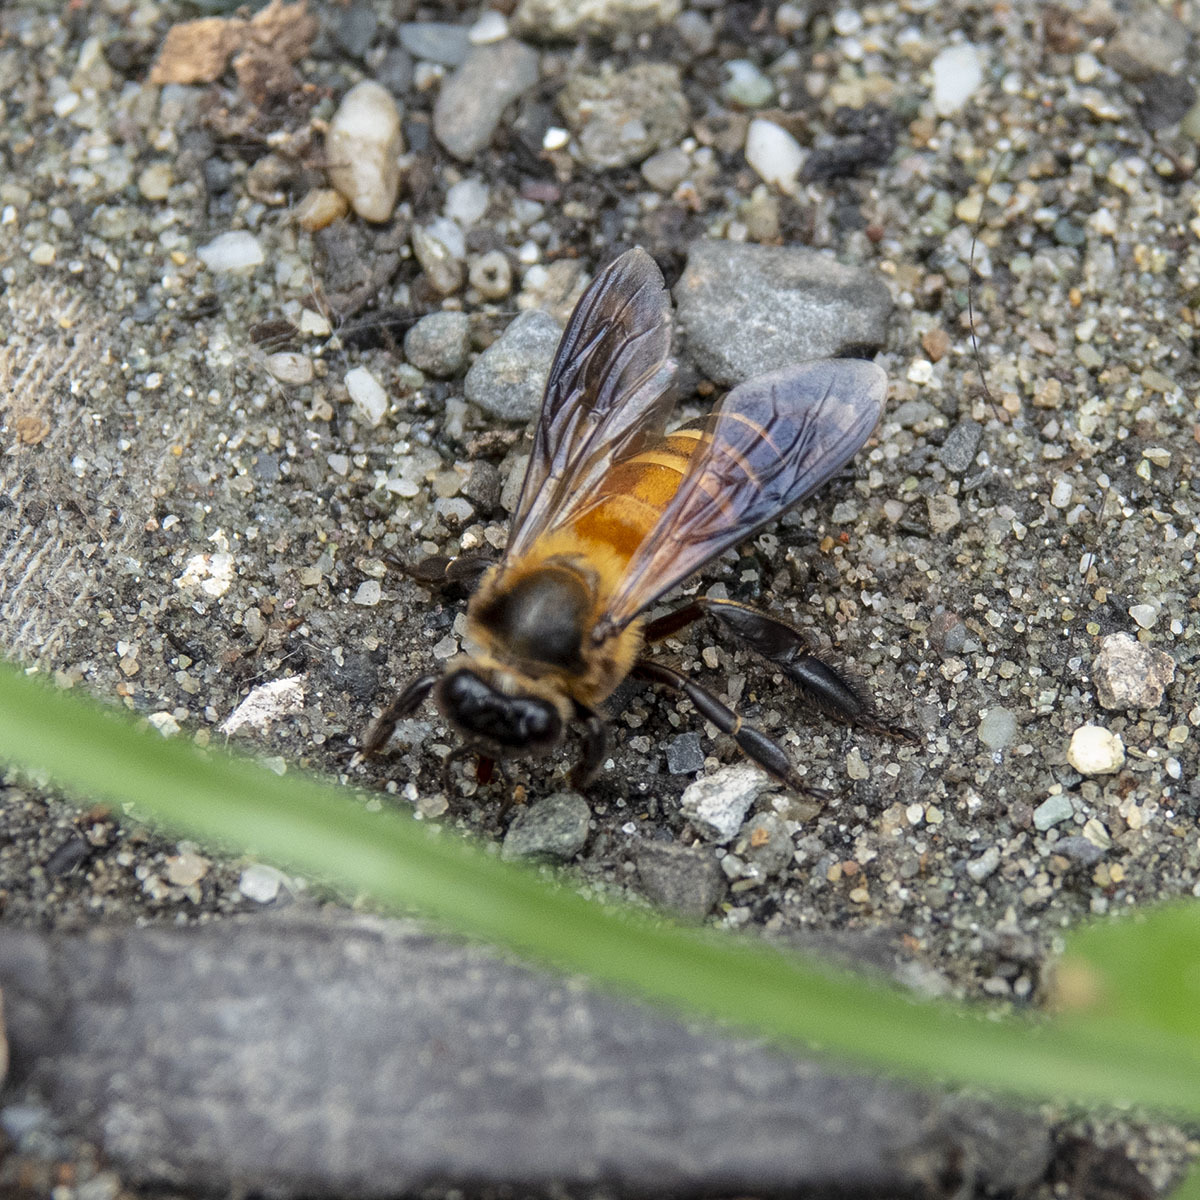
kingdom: Animalia
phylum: Arthropoda
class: Insecta
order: Hymenoptera
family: Apidae
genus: Apis
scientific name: Apis dorsata
